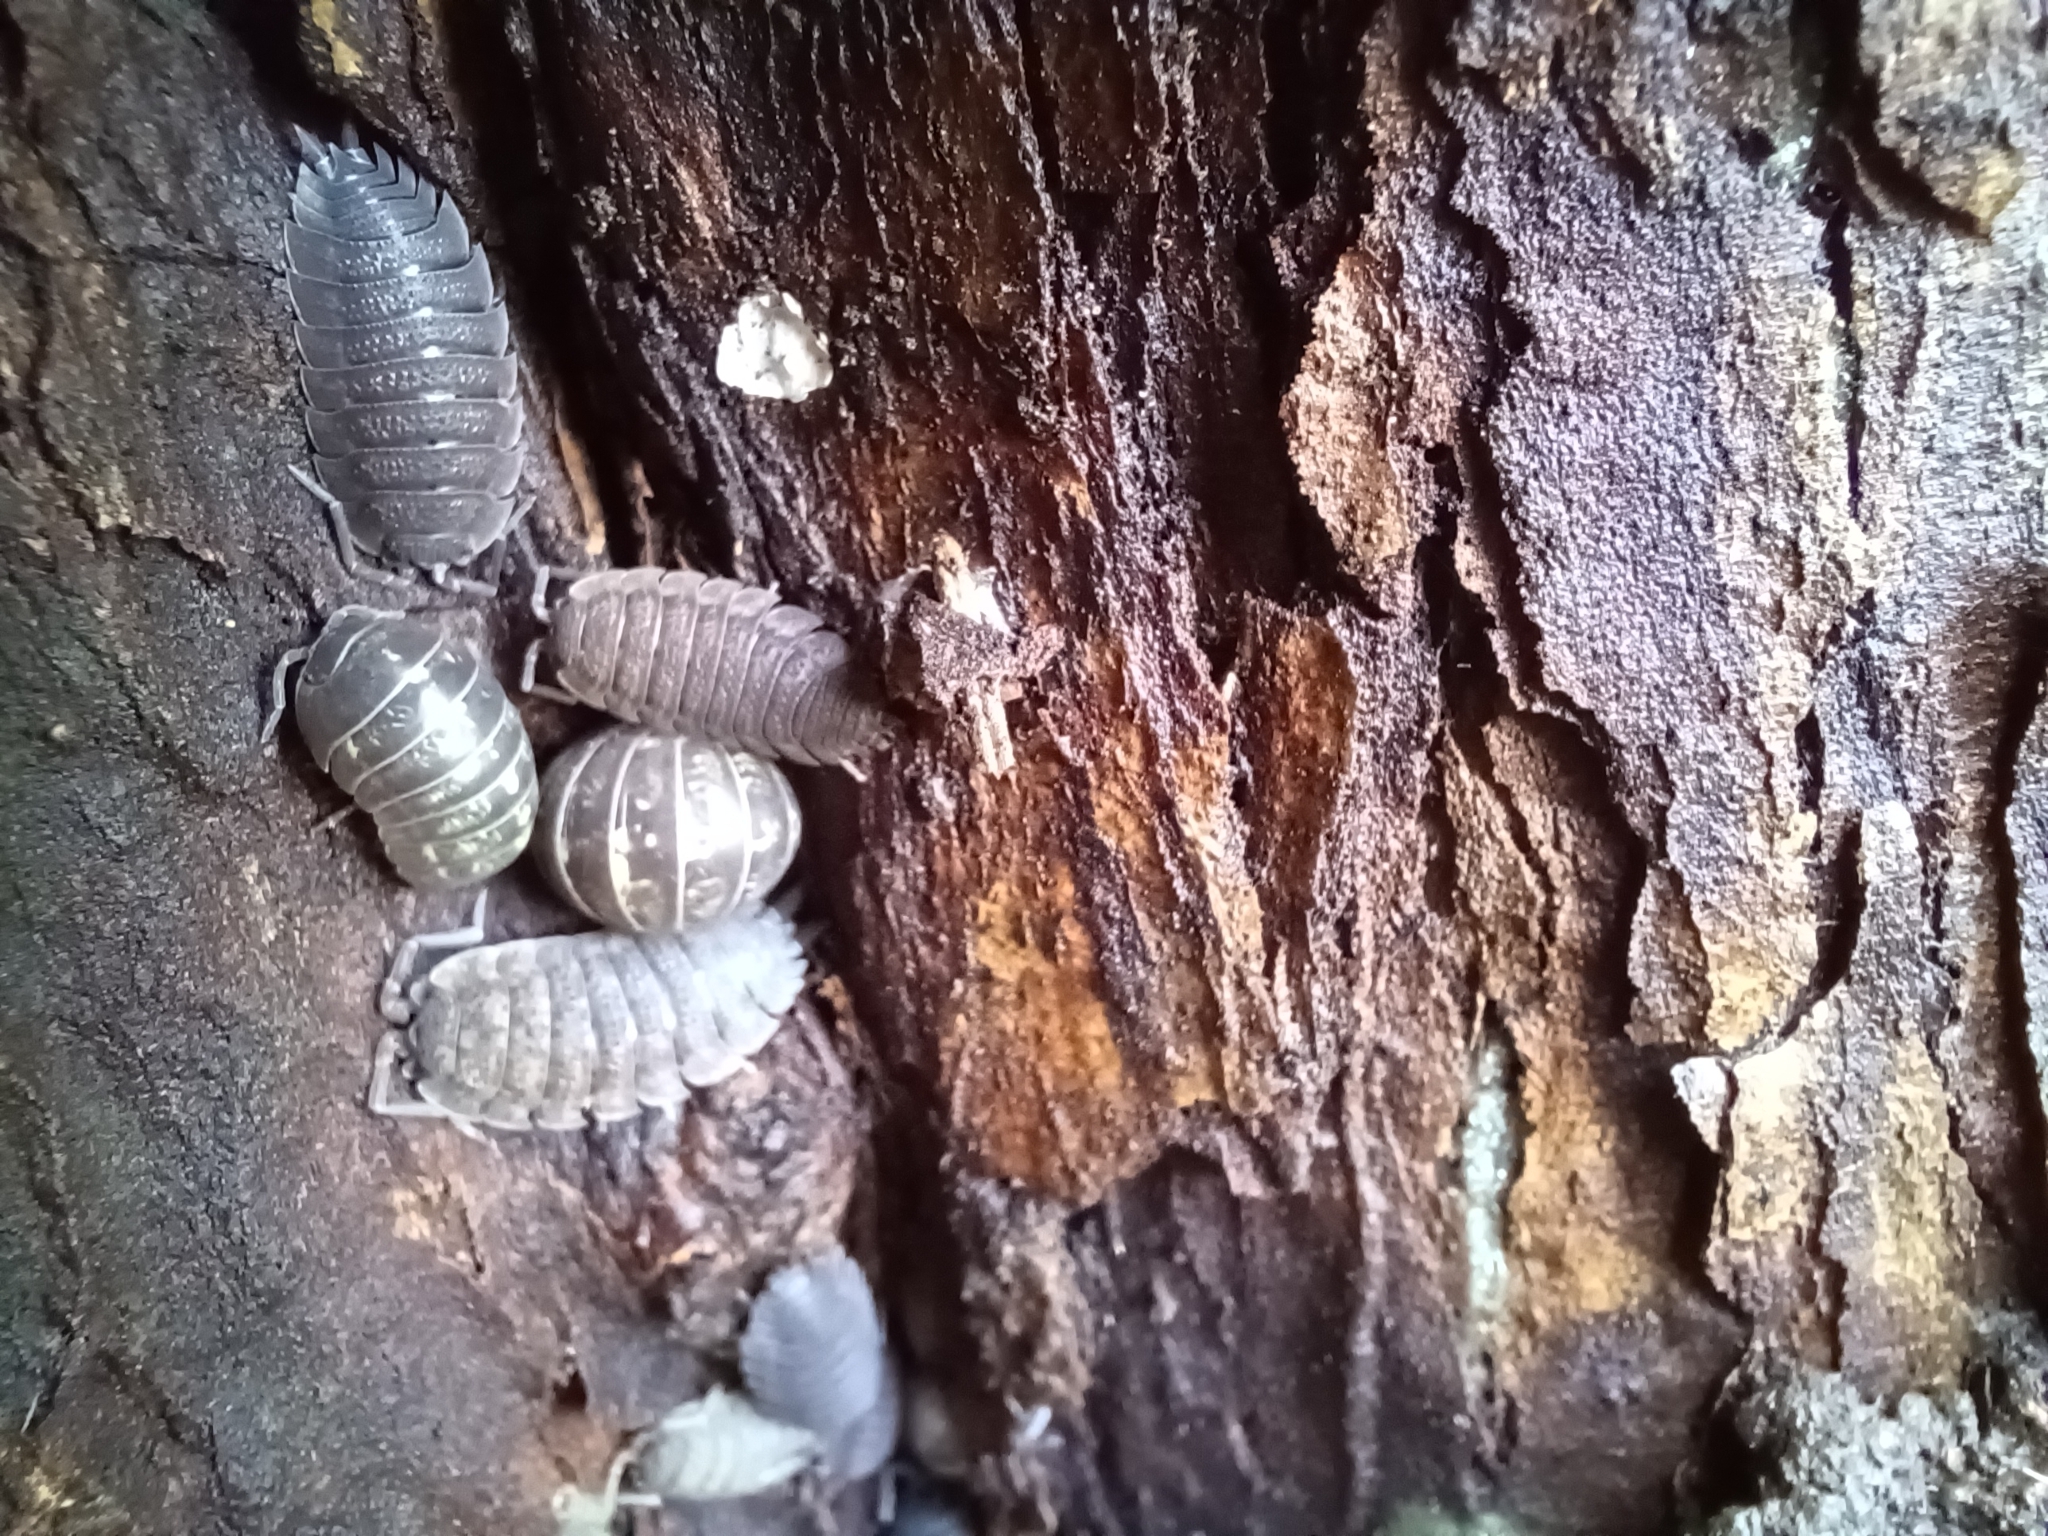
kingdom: Animalia
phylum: Arthropoda
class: Malacostraca
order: Isopoda
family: Porcellionidae
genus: Porcellio
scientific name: Porcellio scaber
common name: Common rough woodlouse
